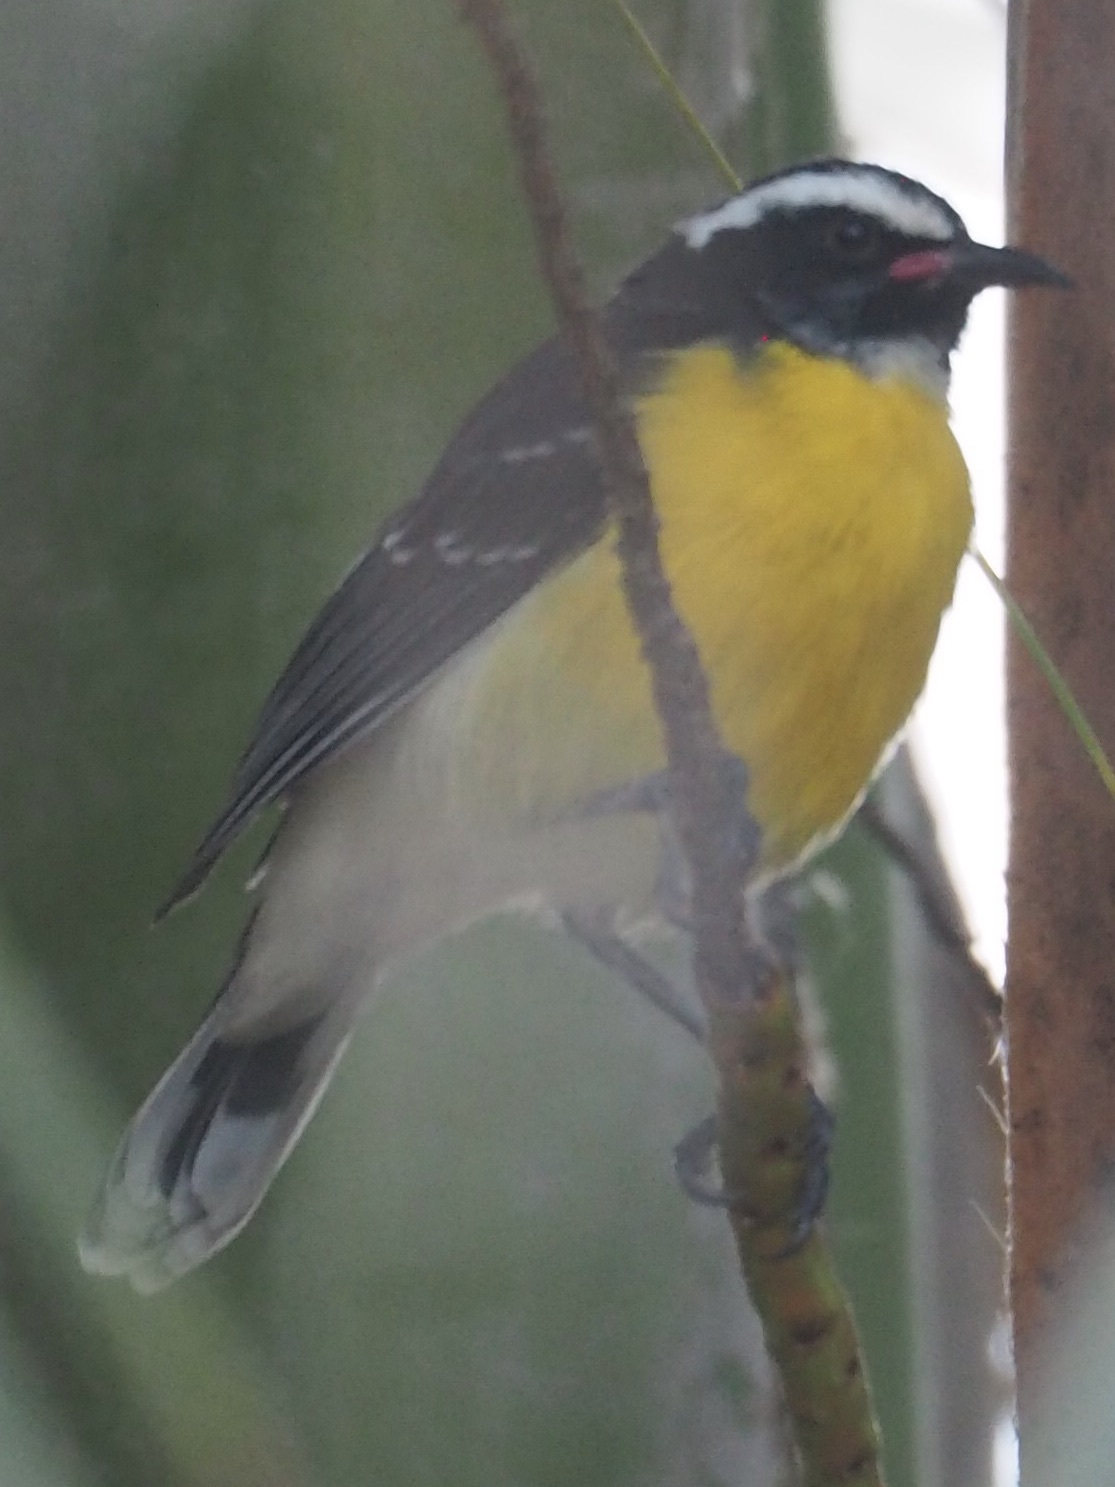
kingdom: Animalia
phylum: Chordata
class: Aves
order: Passeriformes
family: Thraupidae
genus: Coereba
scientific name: Coereba flaveola
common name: Bananaquit
